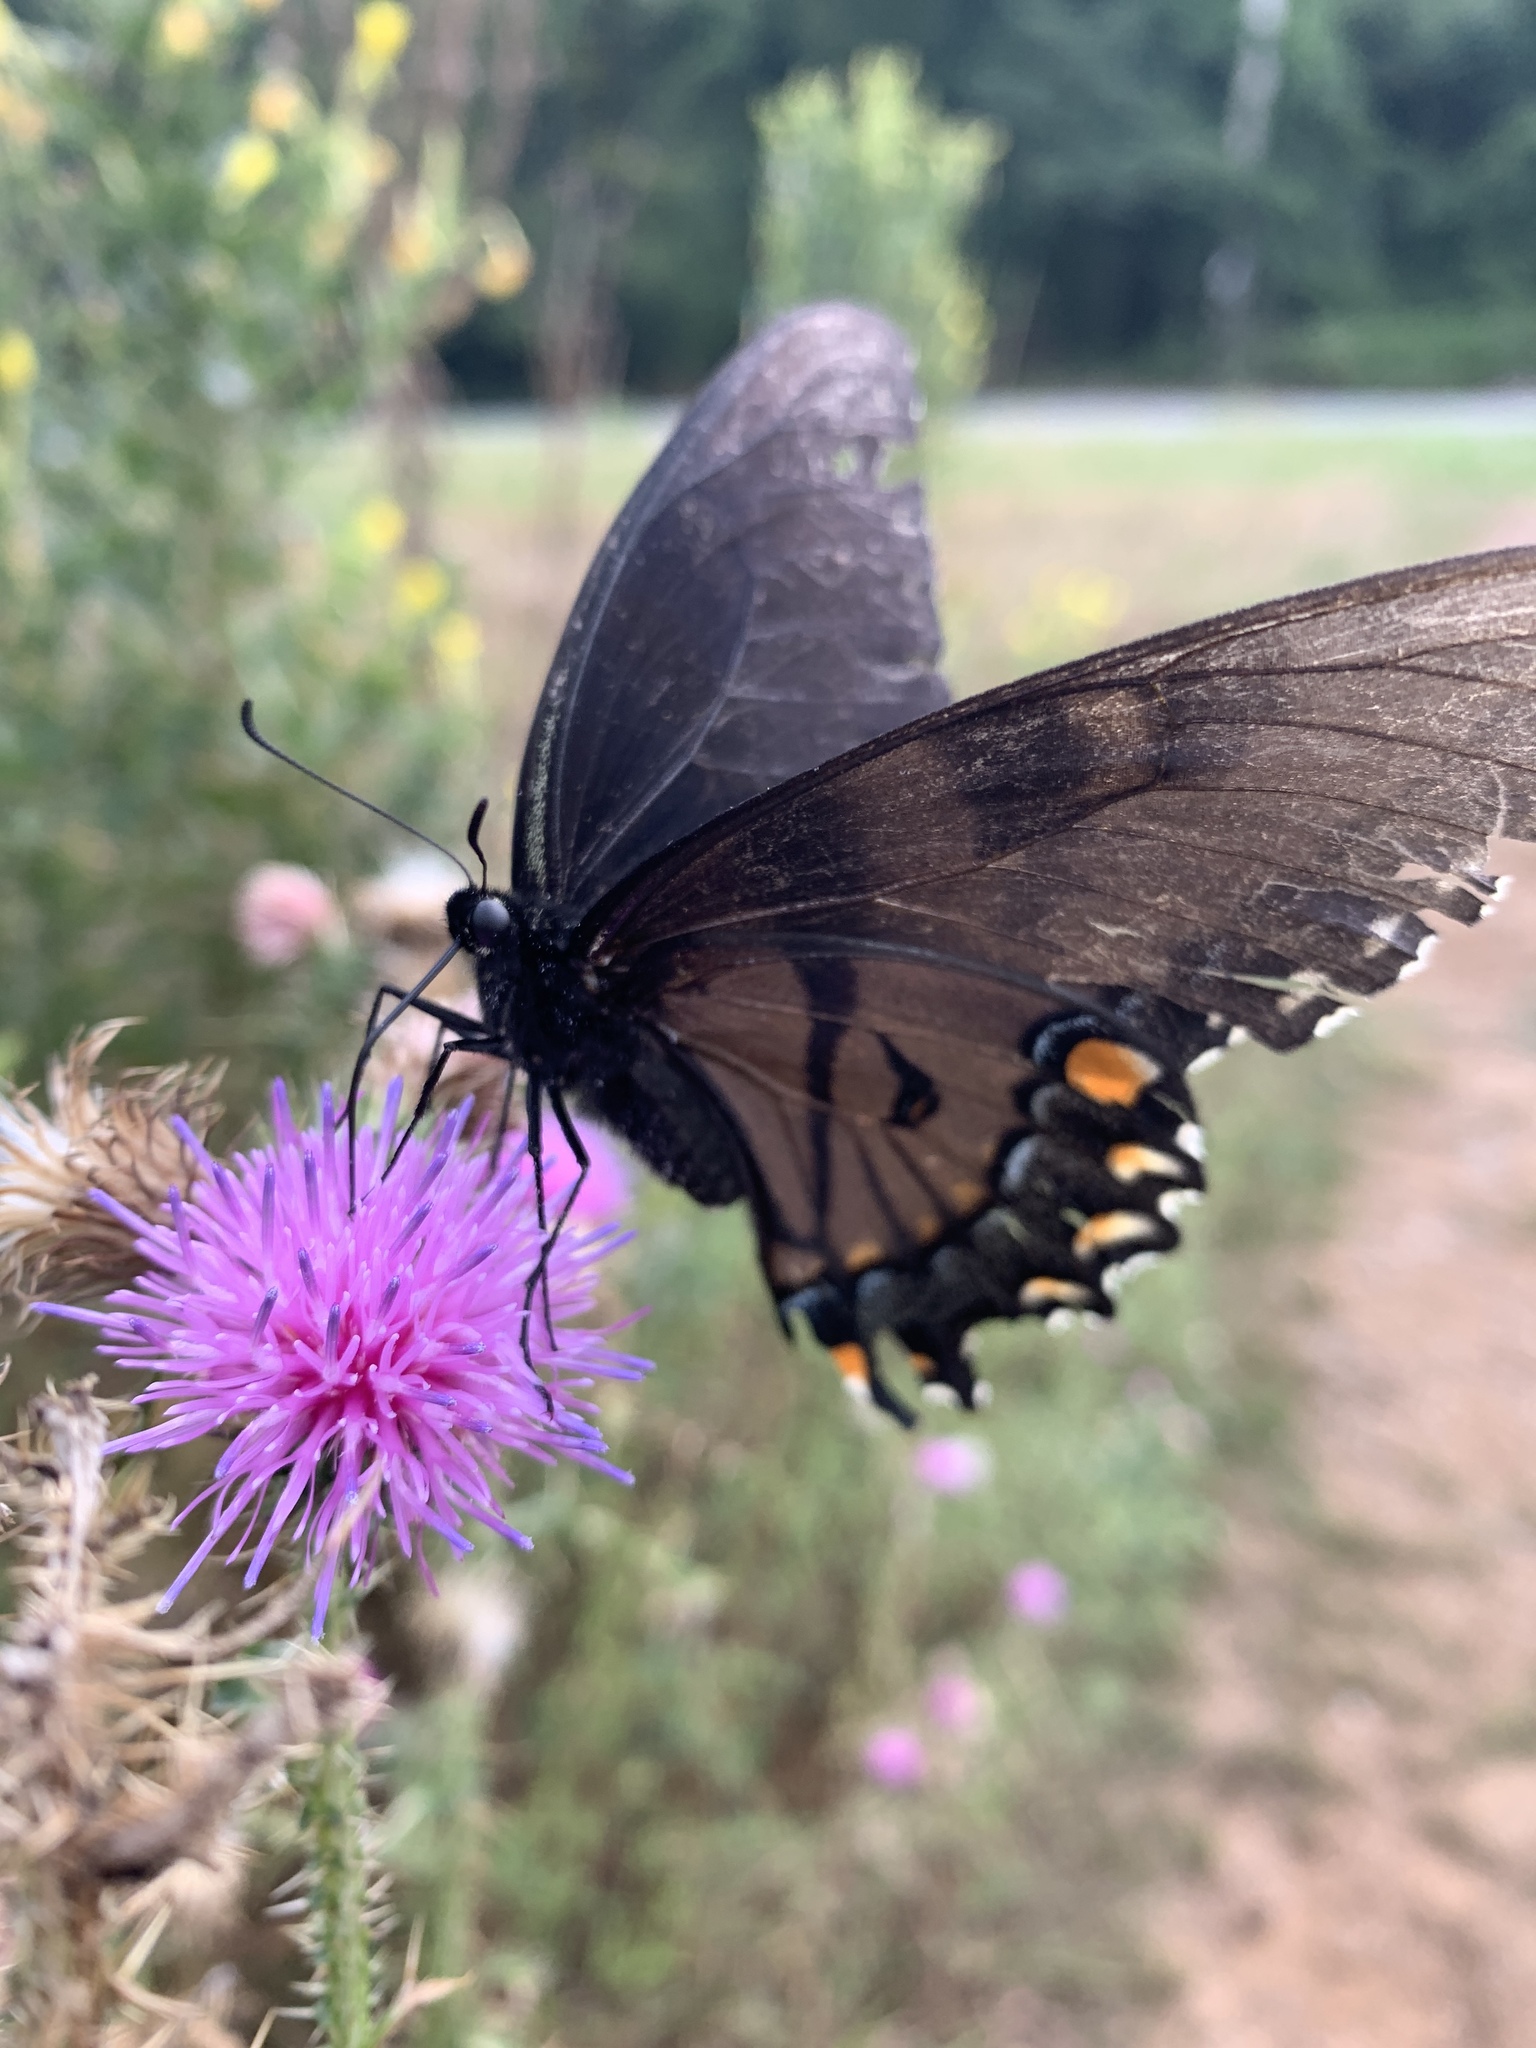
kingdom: Animalia
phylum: Arthropoda
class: Insecta
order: Lepidoptera
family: Papilionidae
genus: Papilio
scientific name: Papilio glaucus
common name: Tiger swallowtail
